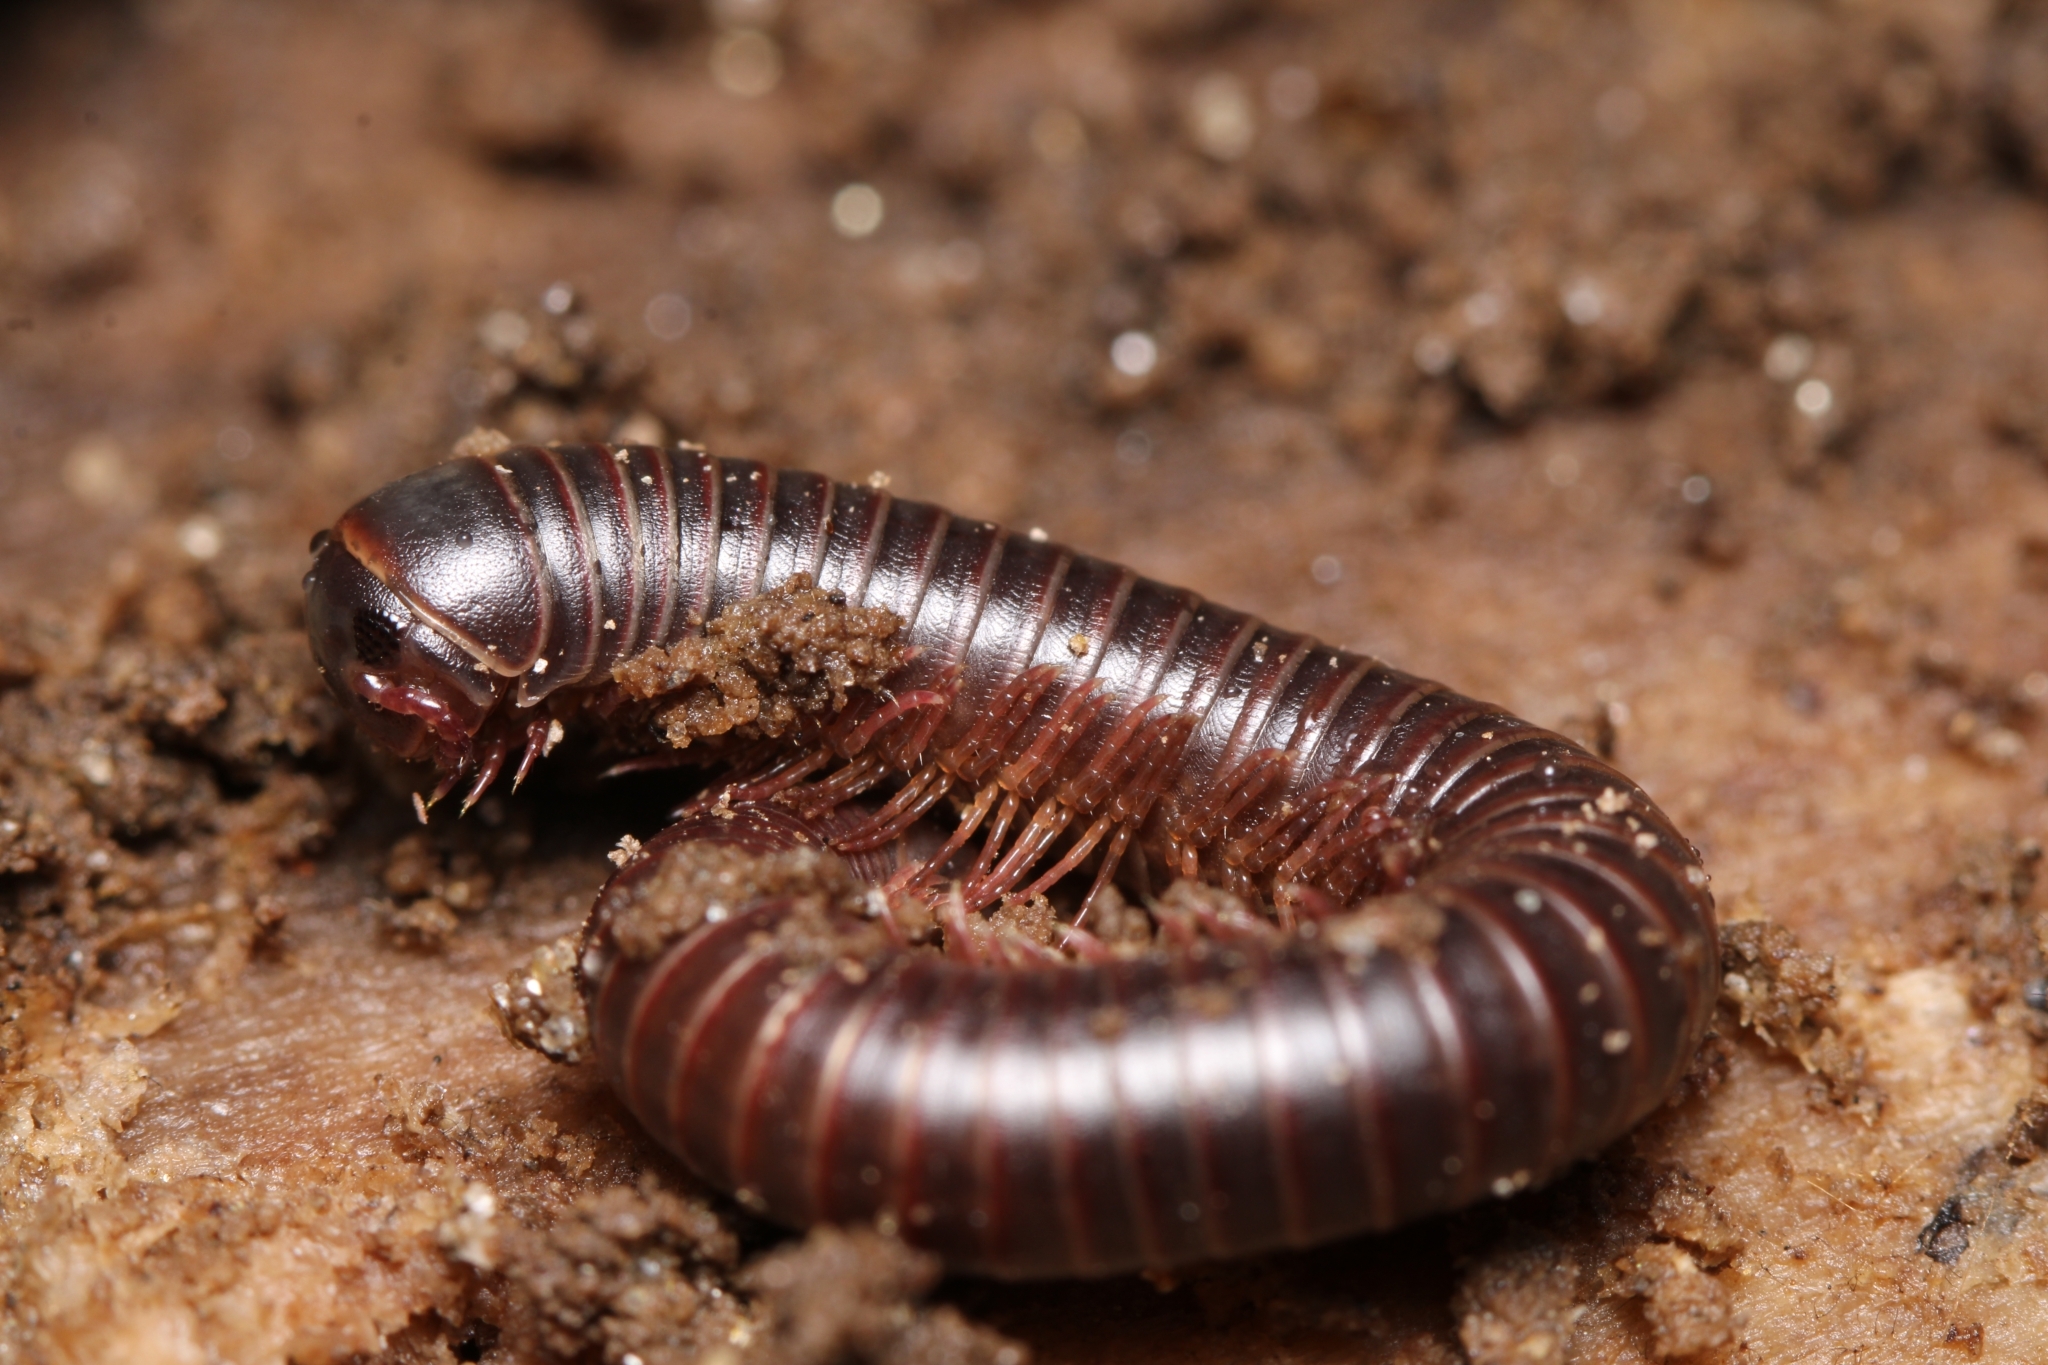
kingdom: Animalia
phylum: Arthropoda
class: Diplopoda
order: Spirobolida
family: Spirobolidae
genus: Narceus
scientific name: Narceus
